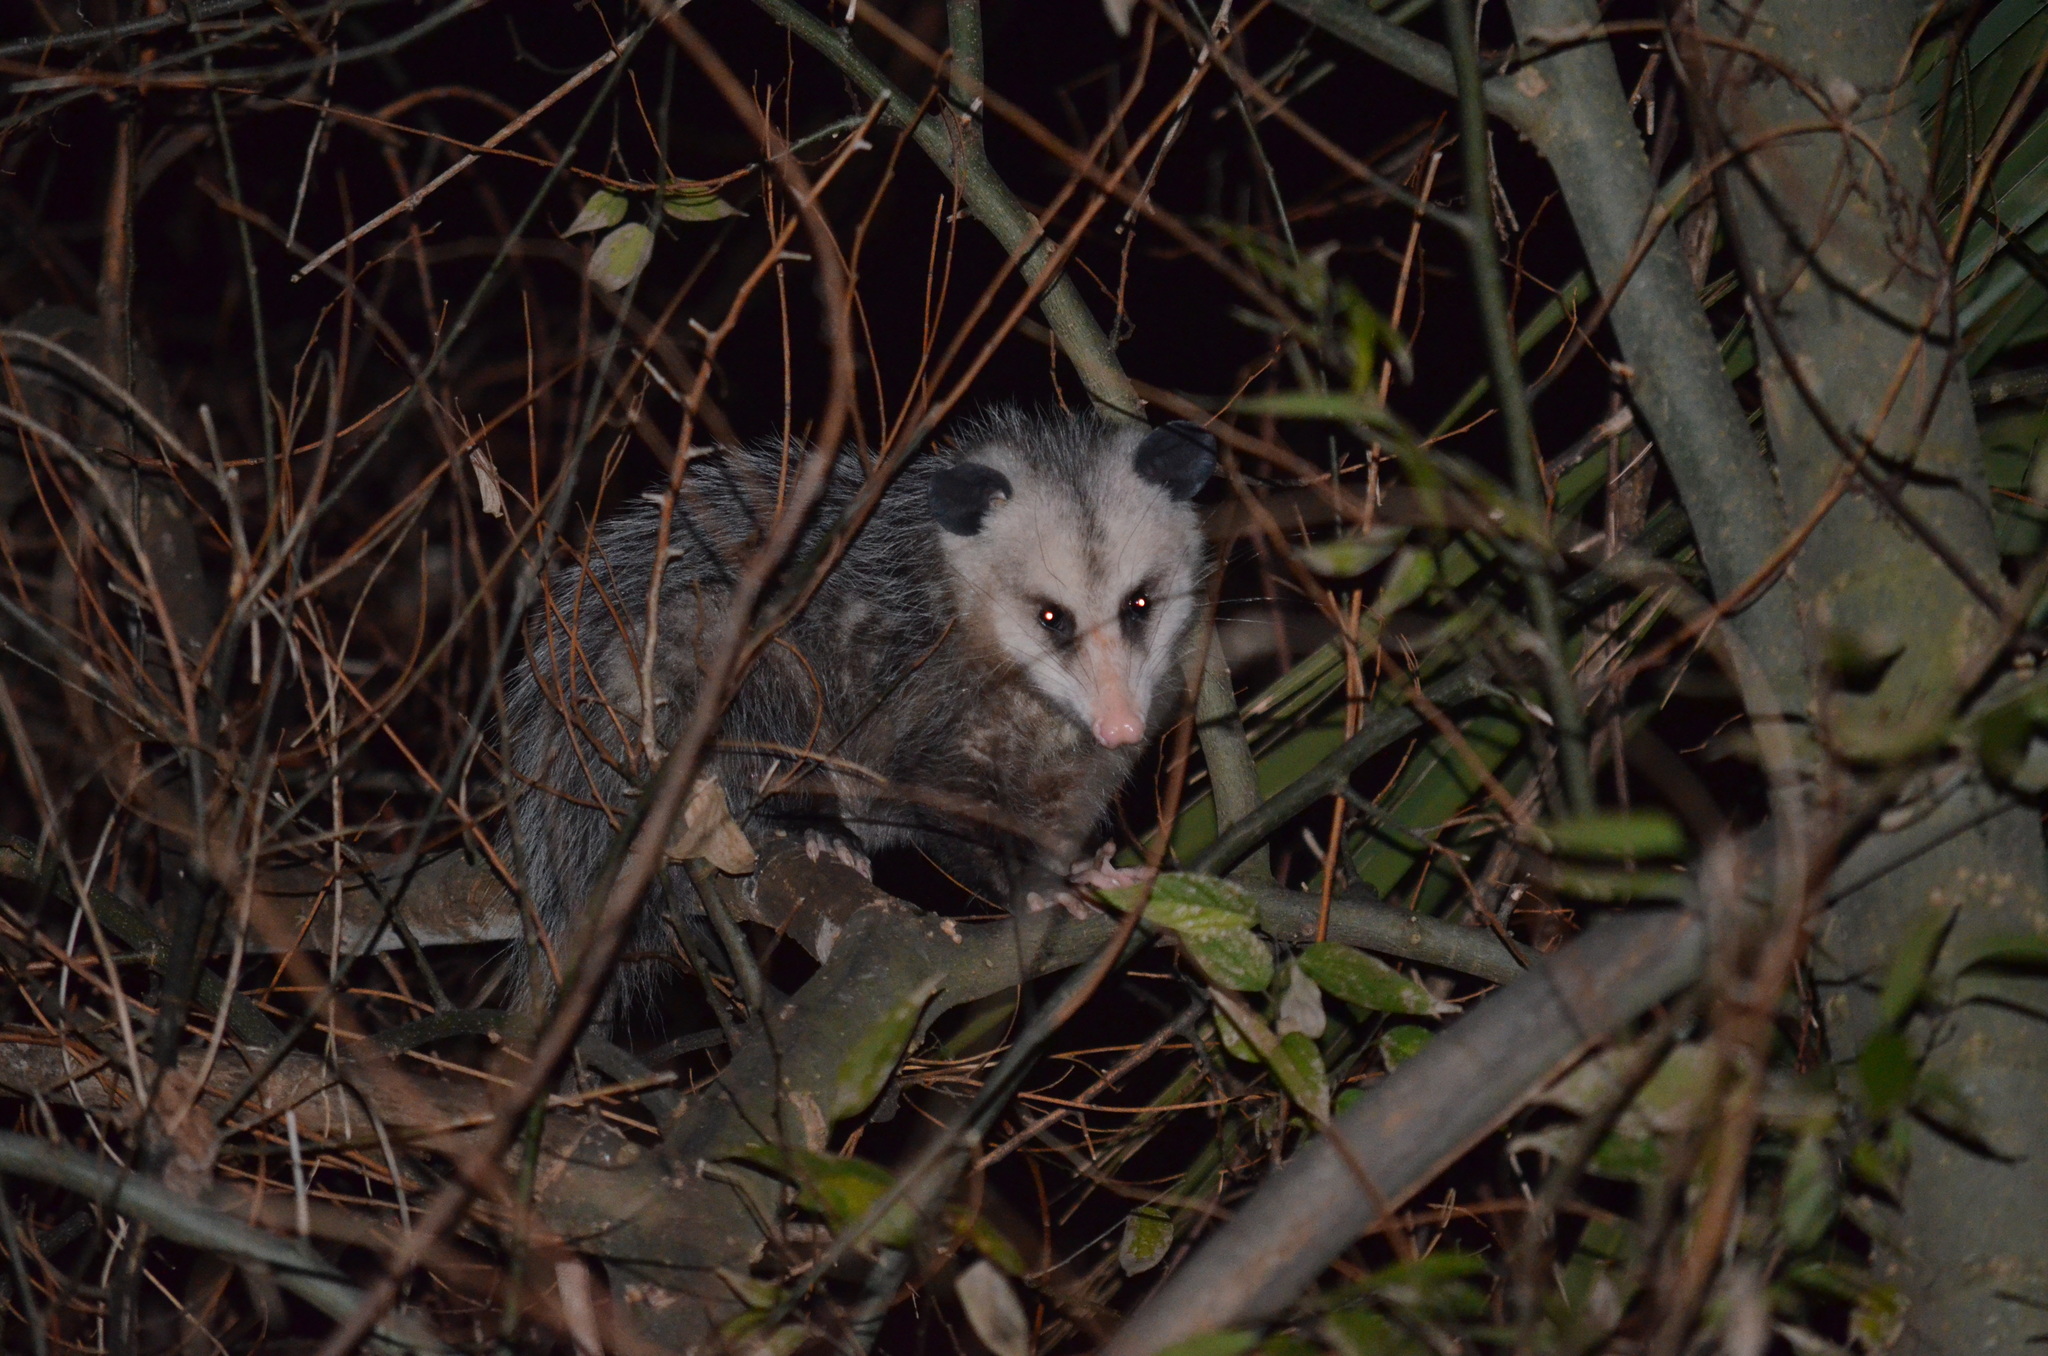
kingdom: Animalia
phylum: Chordata
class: Mammalia
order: Didelphimorphia
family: Didelphidae
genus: Didelphis
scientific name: Didelphis virginiana
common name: Virginia opossum
